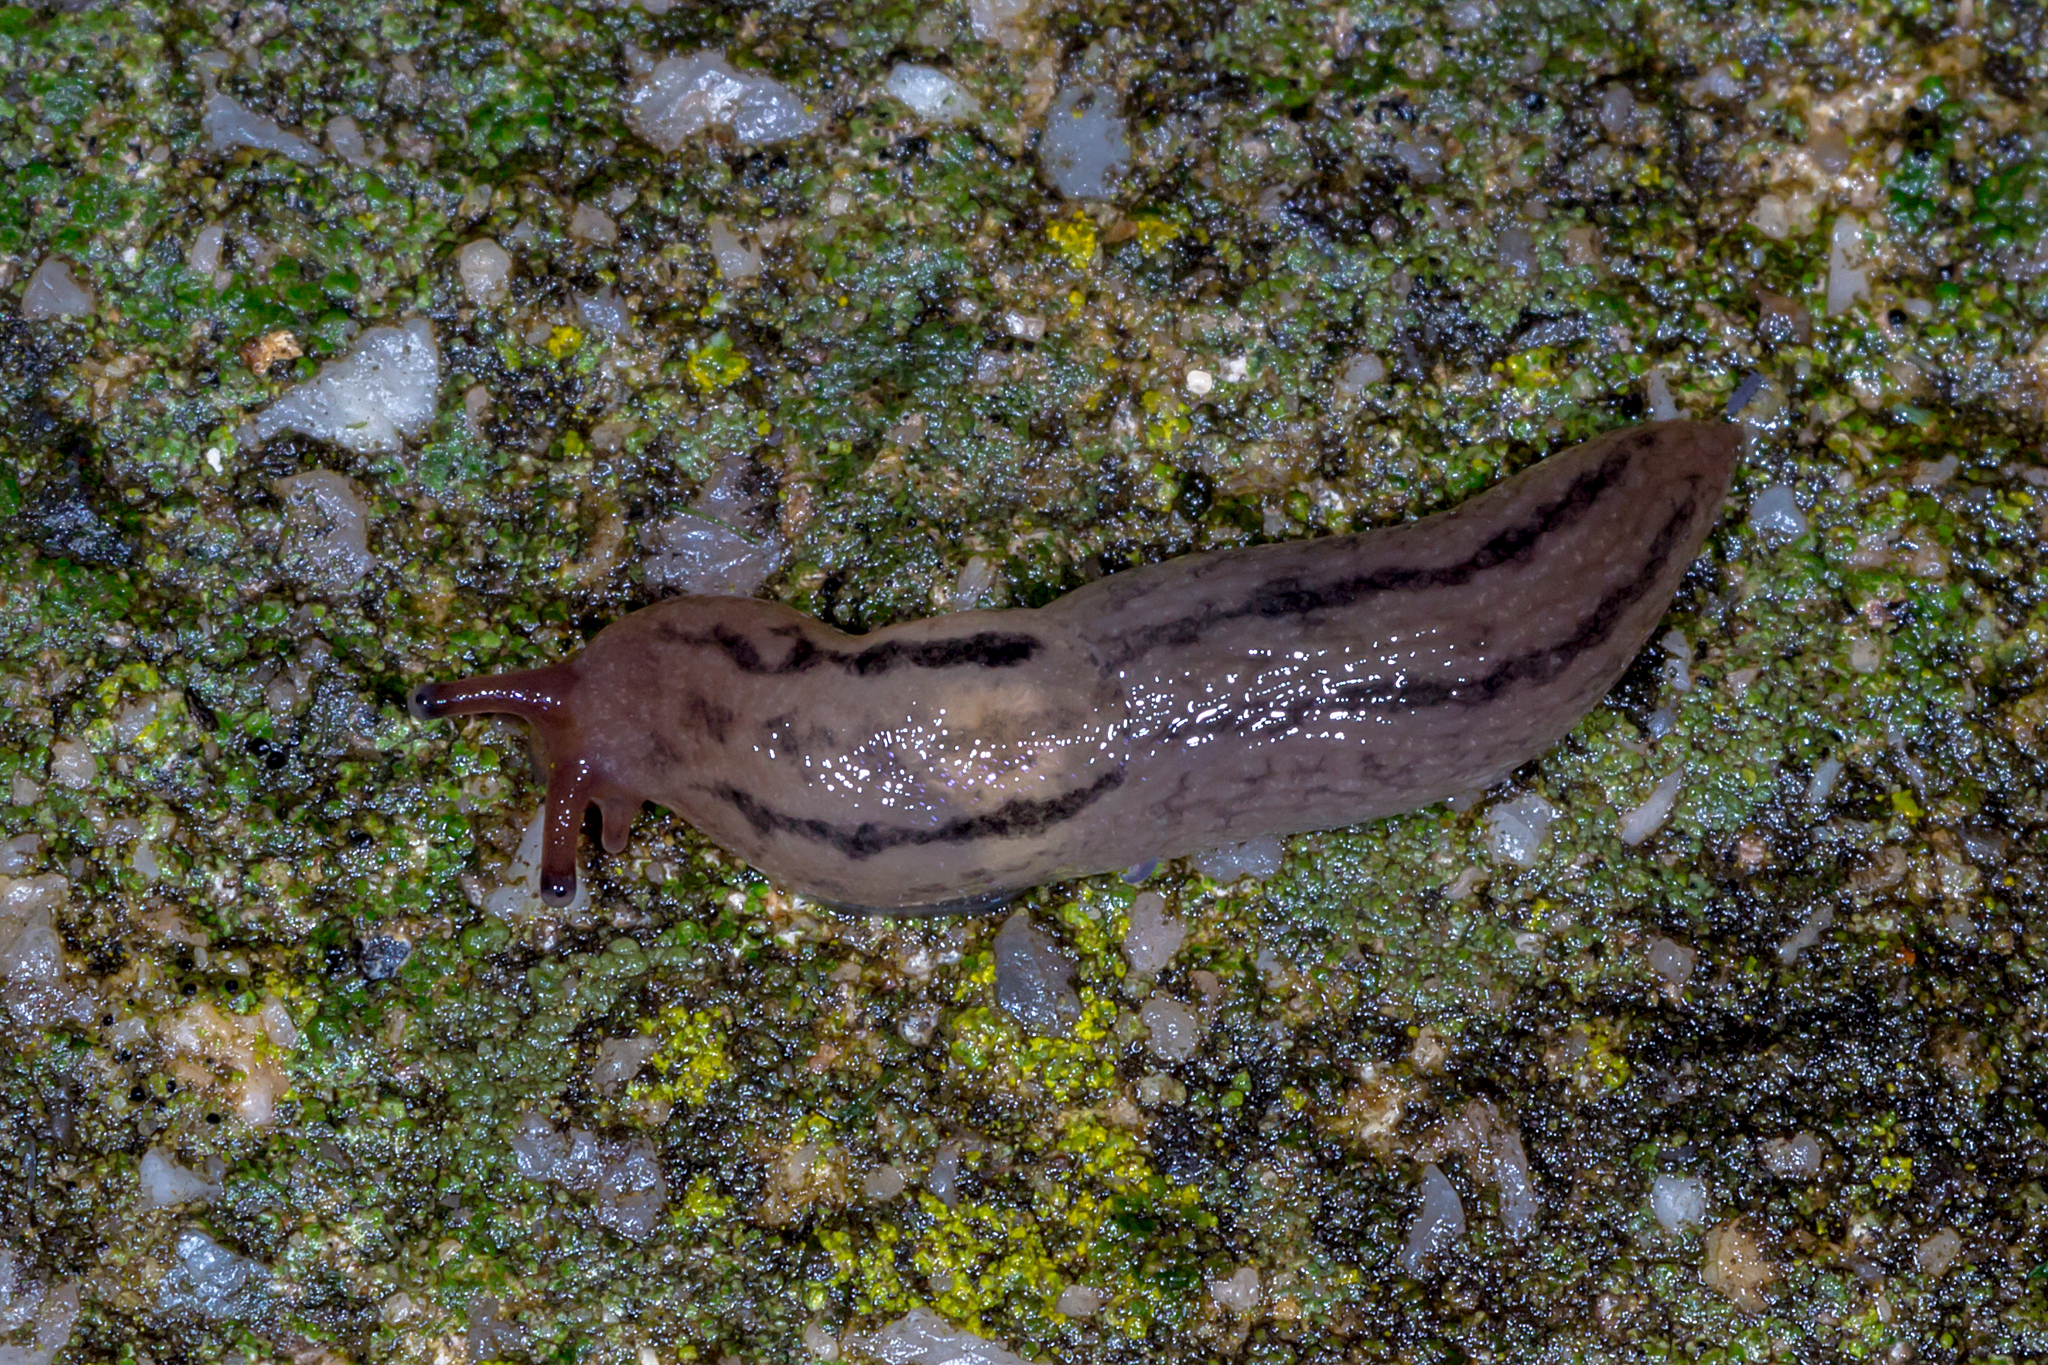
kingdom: Animalia
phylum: Mollusca
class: Gastropoda
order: Stylommatophora
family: Limacidae
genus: Ambigolimax
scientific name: Ambigolimax
